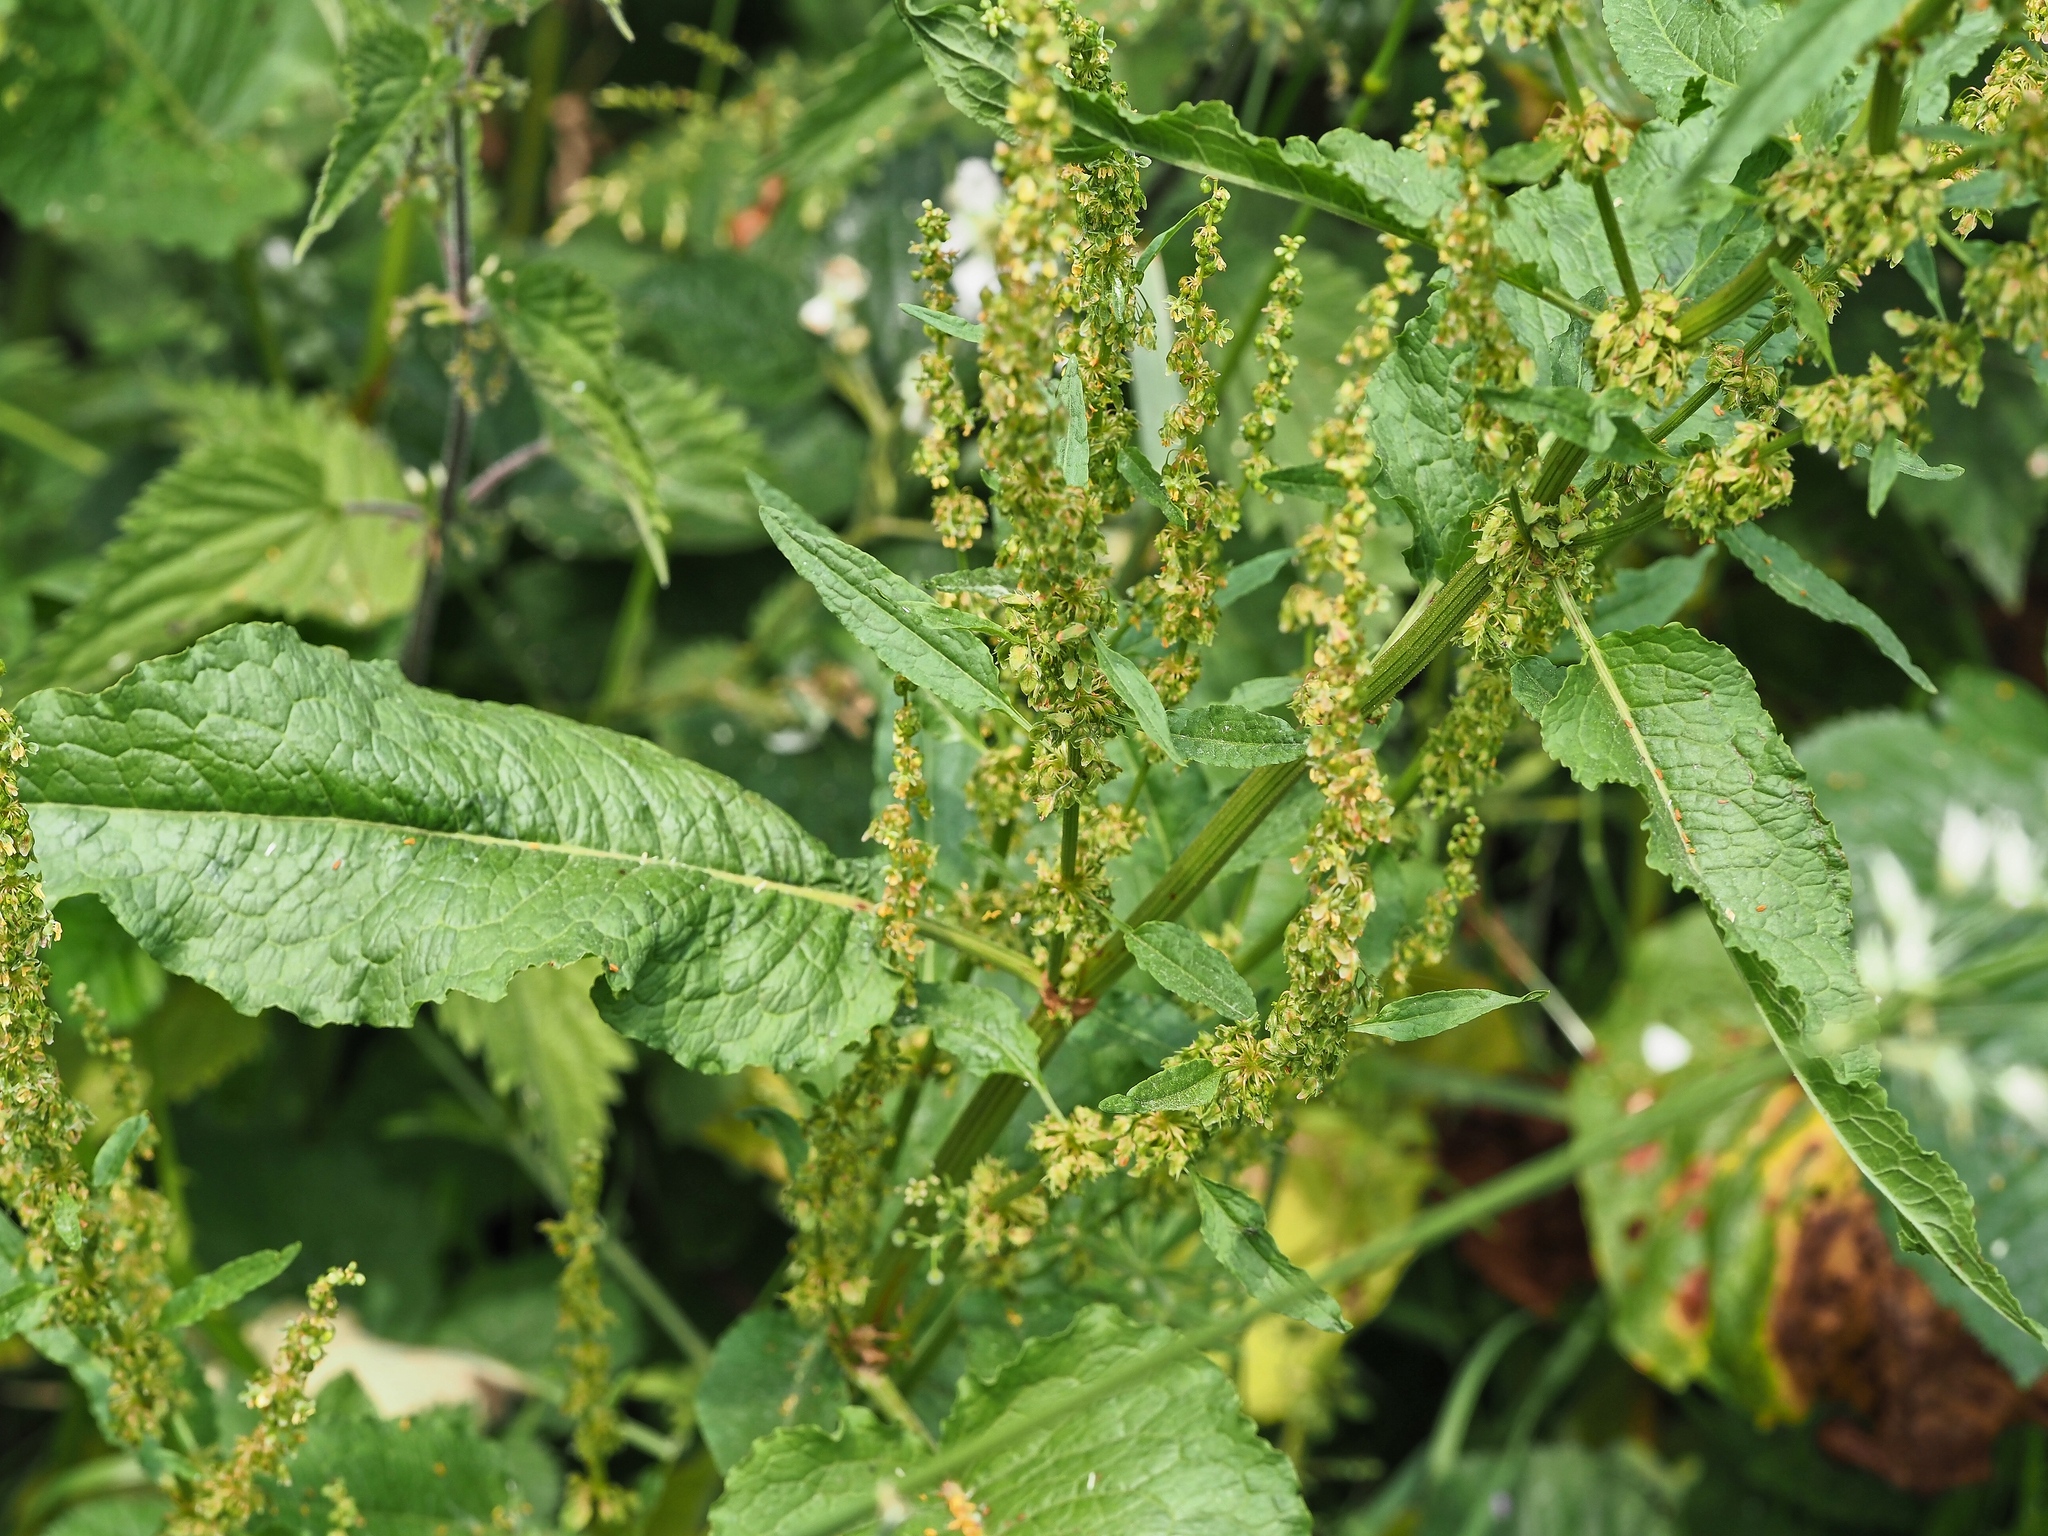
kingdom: Plantae
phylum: Tracheophyta
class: Magnoliopsida
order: Caryophyllales
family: Polygonaceae
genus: Rumex
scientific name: Rumex obtusifolius
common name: Bitter dock
